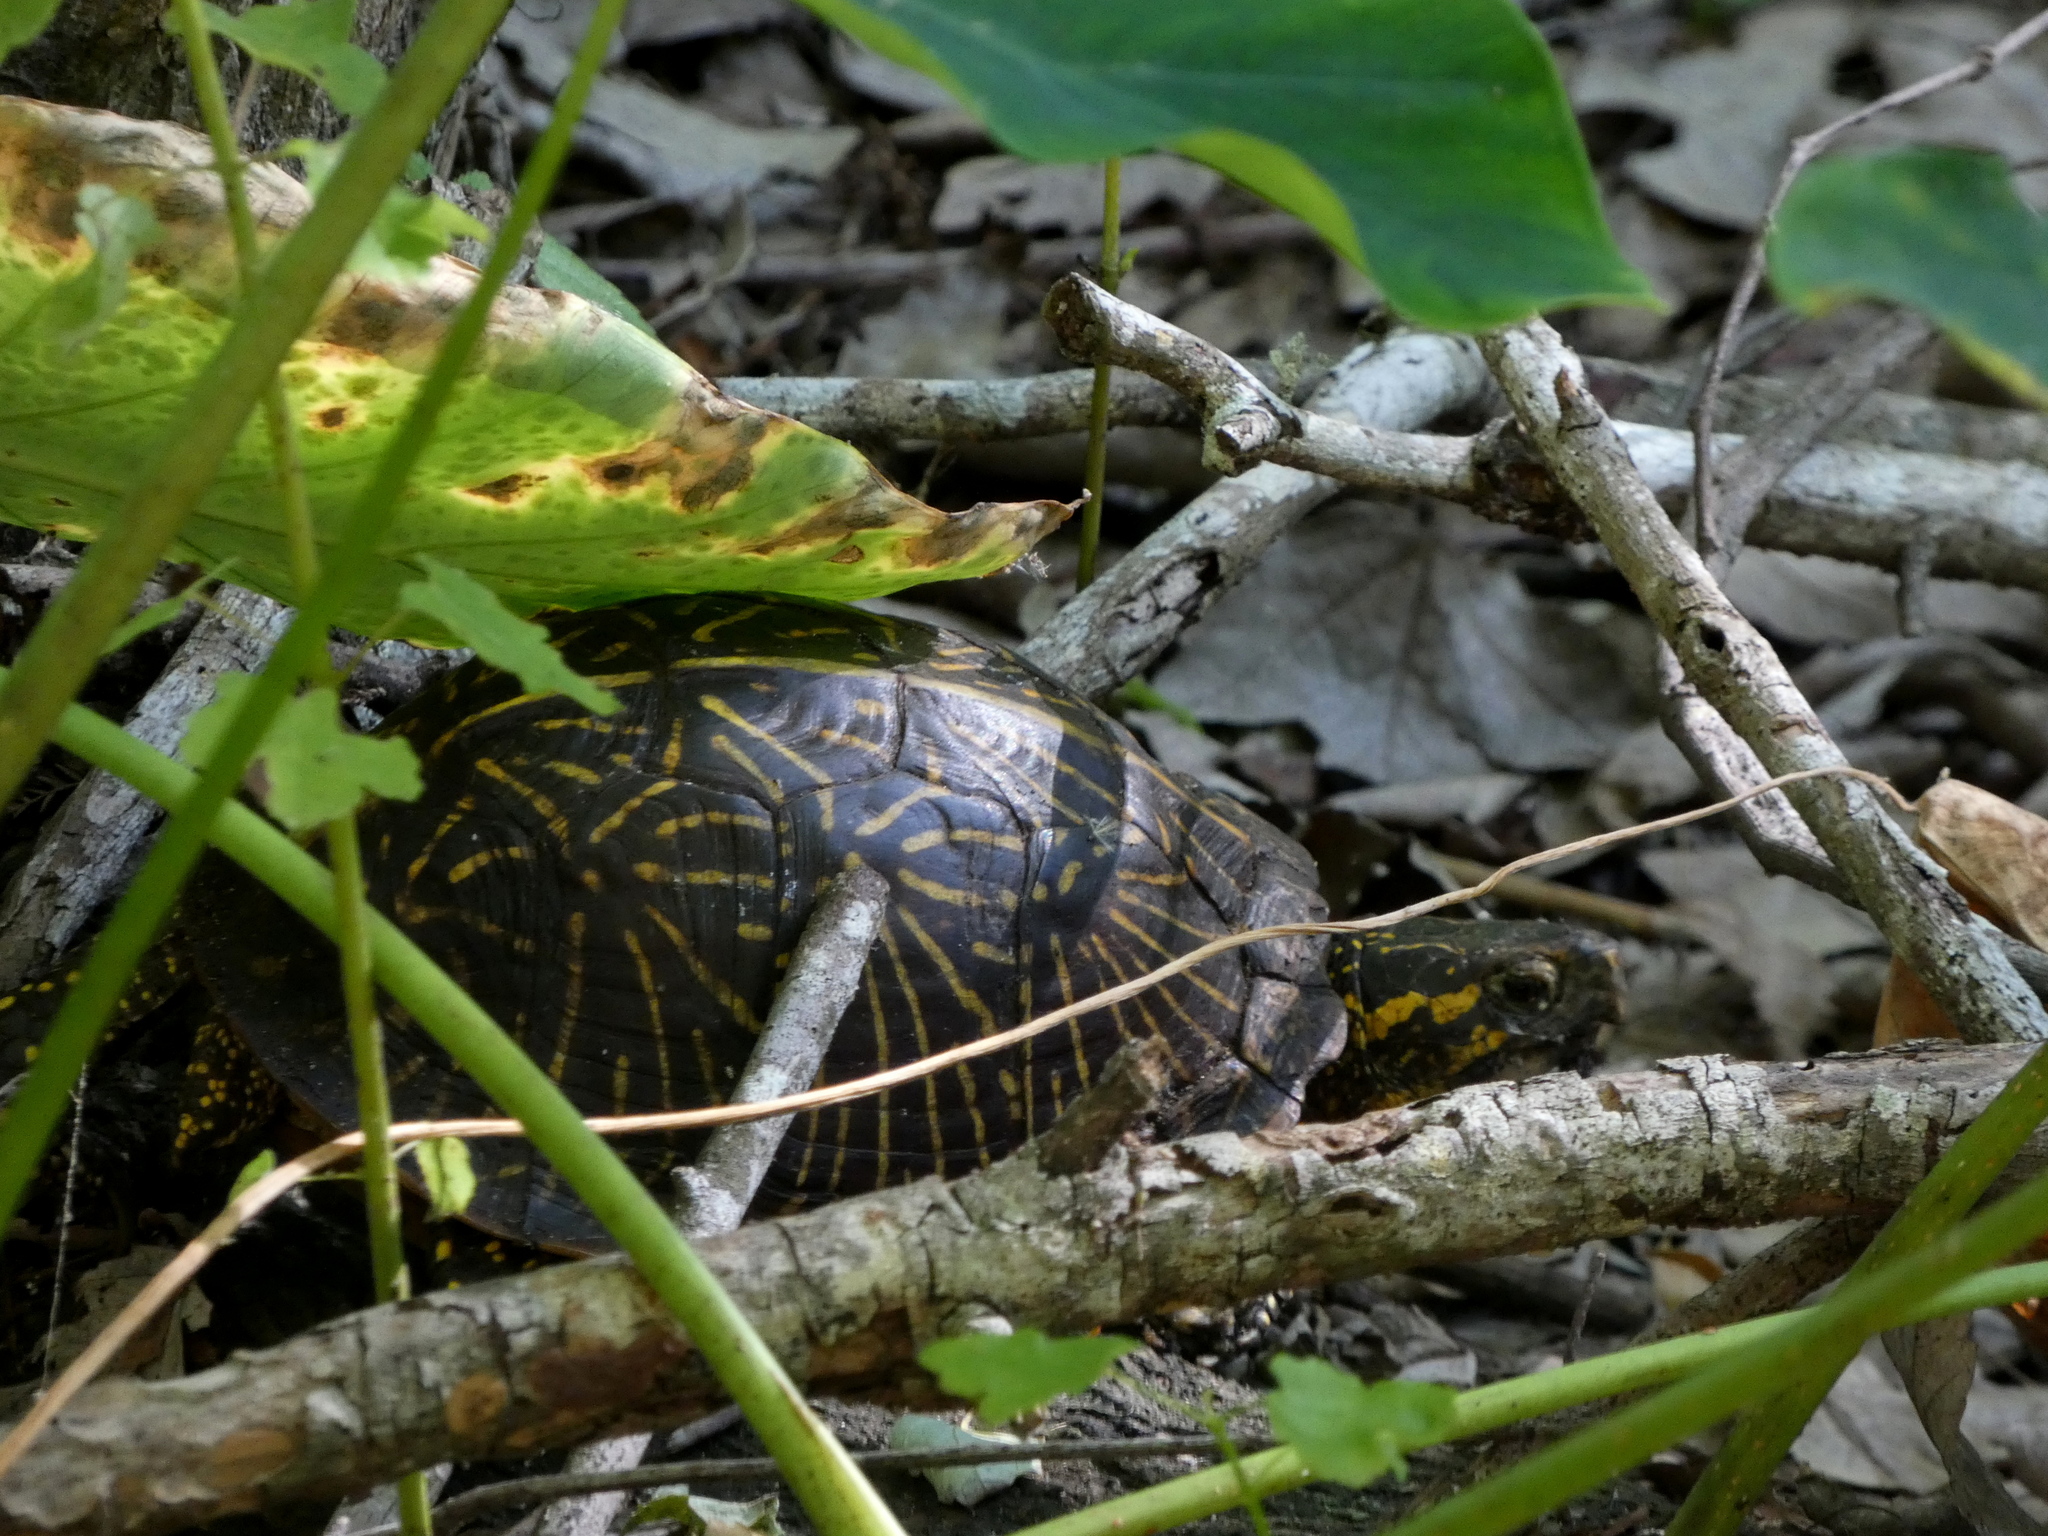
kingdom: Animalia
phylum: Chordata
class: Testudines
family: Emydidae
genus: Terrapene
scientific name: Terrapene carolina
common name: Common box turtle
